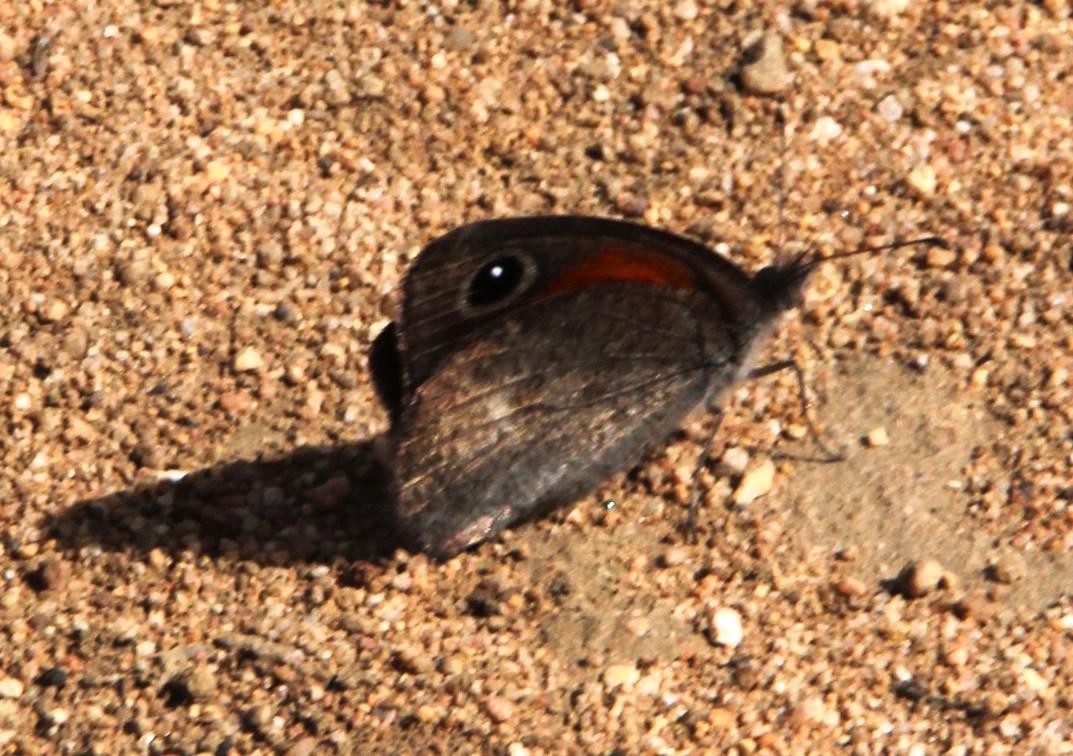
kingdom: Animalia
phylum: Arthropoda
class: Insecta
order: Lepidoptera
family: Nymphalidae
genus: Stygionympha
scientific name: Stygionympha vigilans
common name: Western hillside brown
